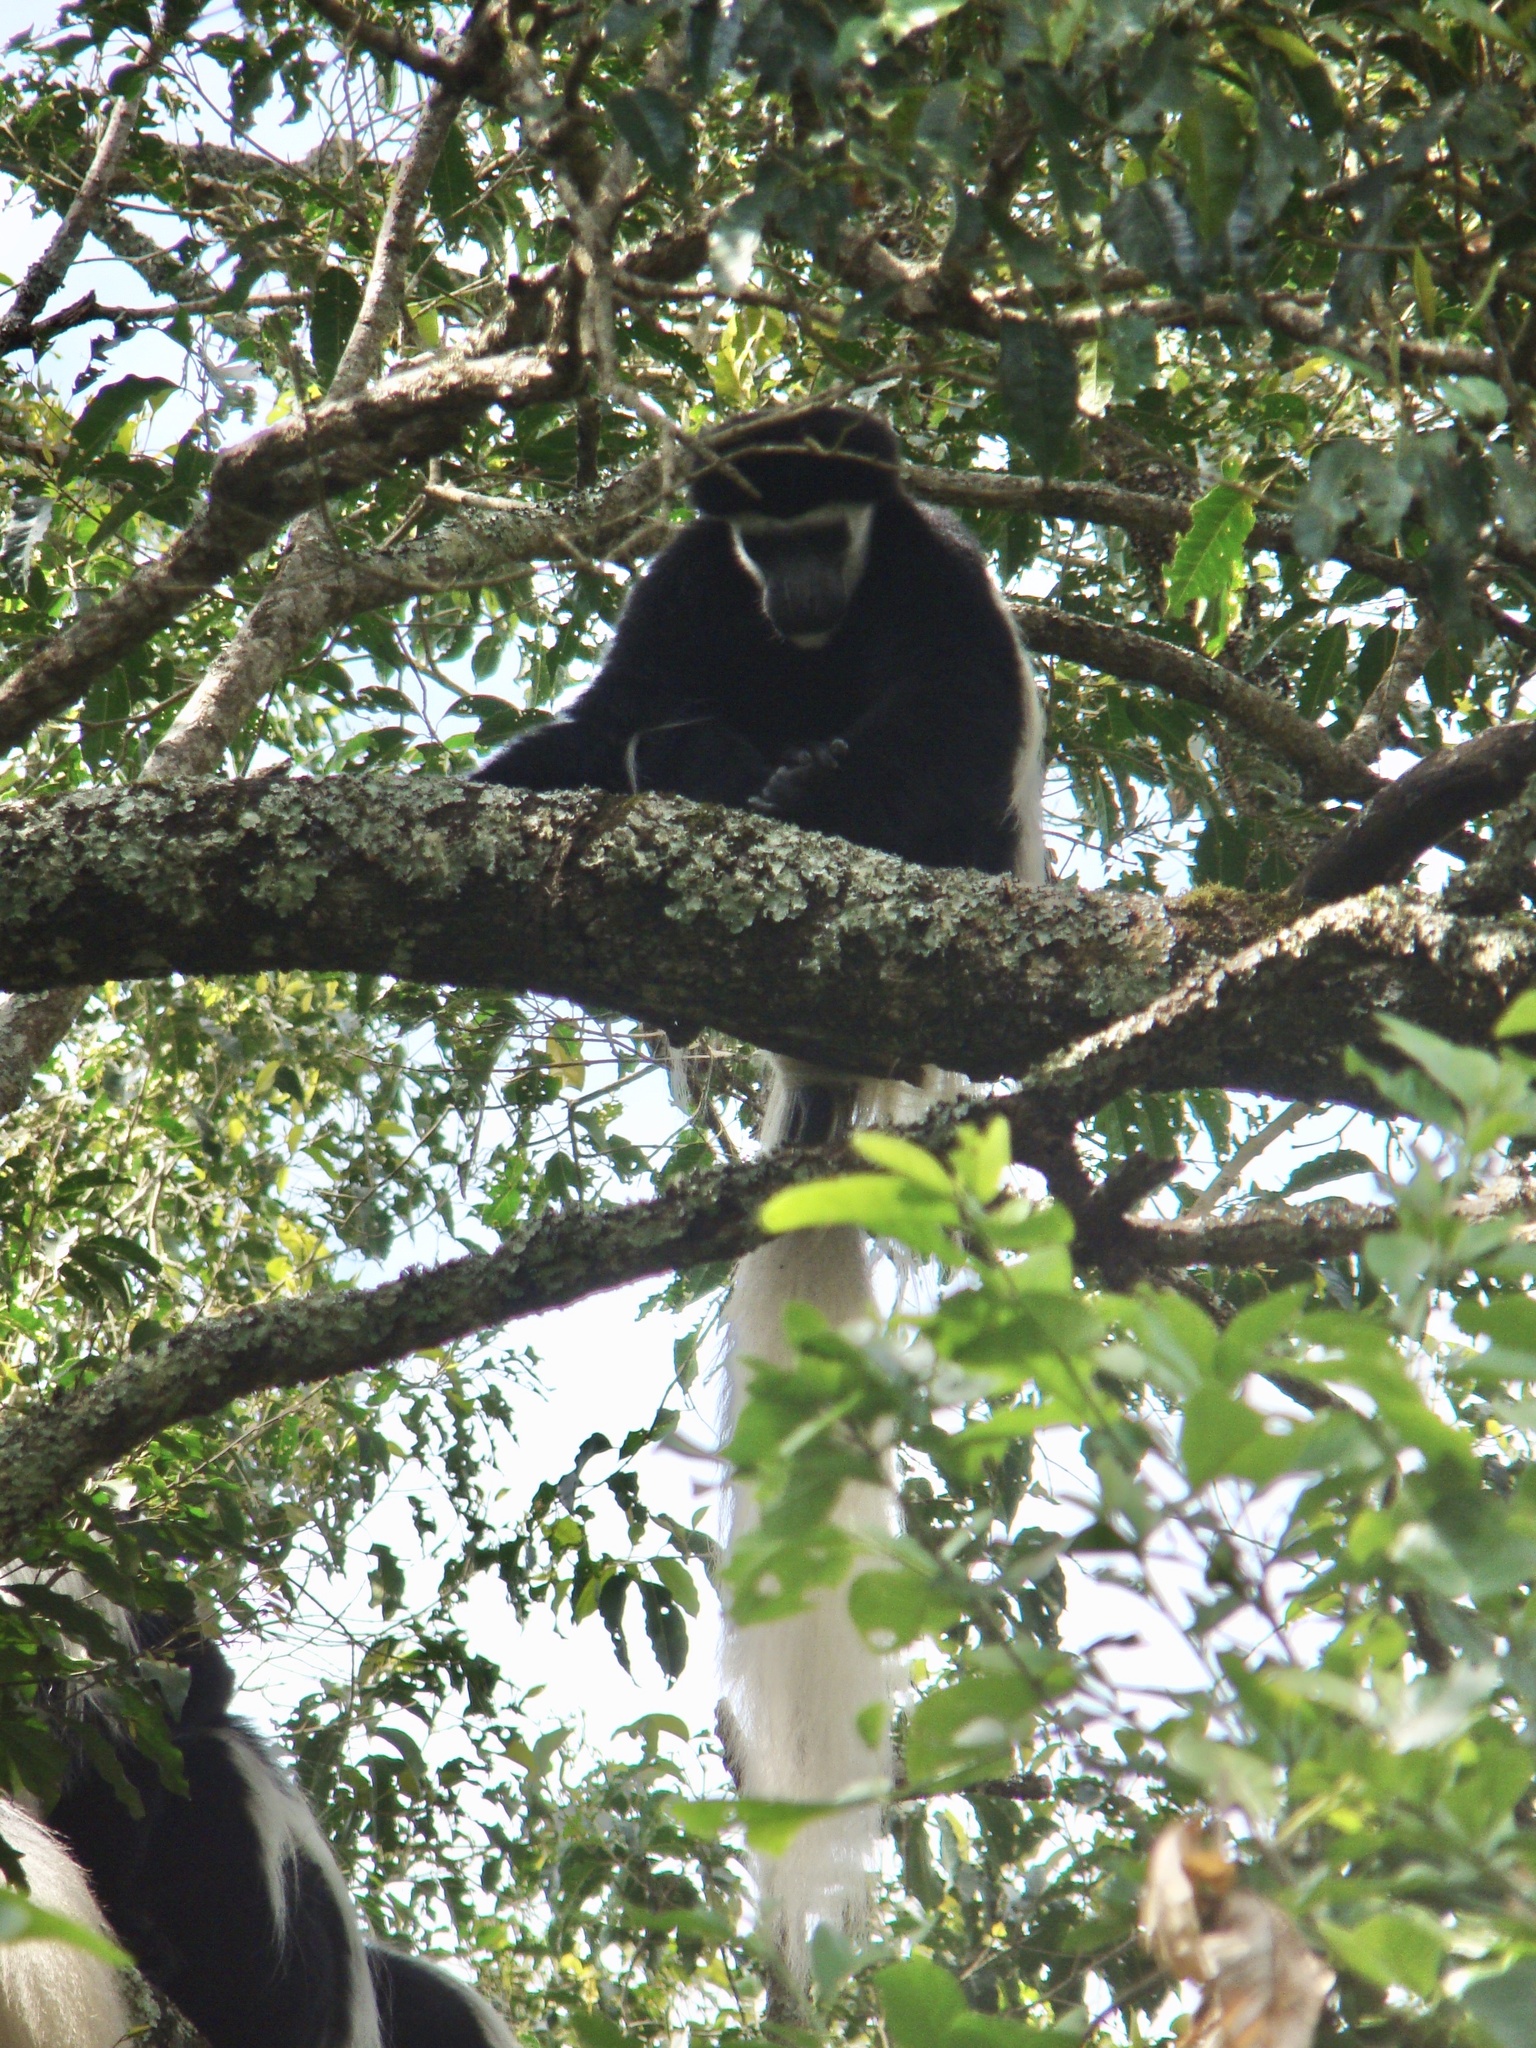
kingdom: Animalia
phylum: Chordata
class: Mammalia
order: Primates
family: Cercopithecidae
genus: Colobus
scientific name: Colobus caudatus
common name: Mount kilimanjaro guereza
